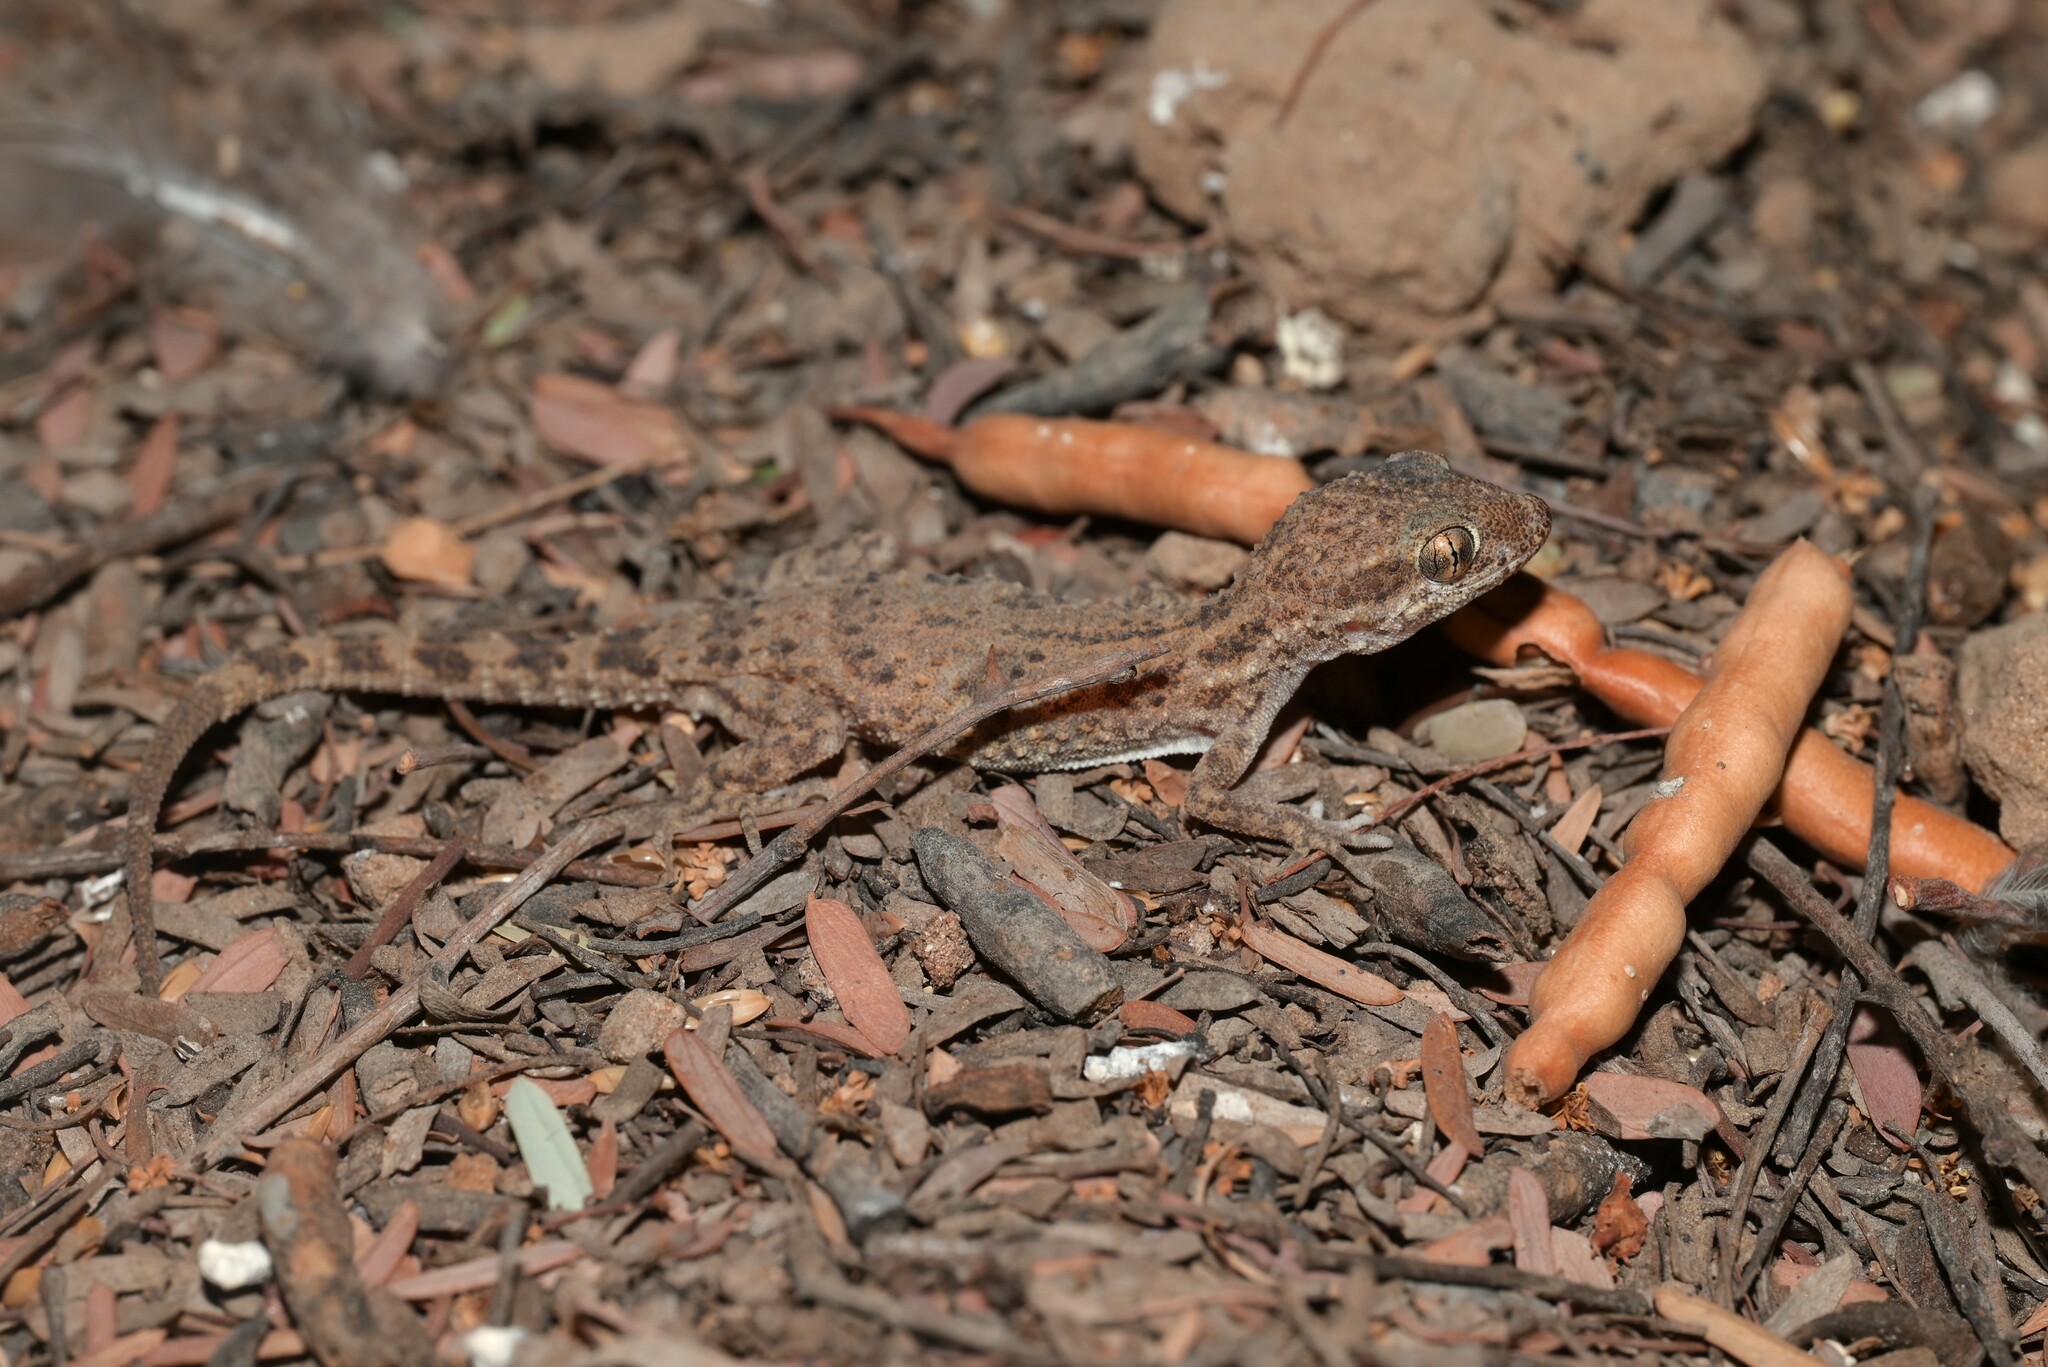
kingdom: Animalia
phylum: Chordata
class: Squamata
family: Gekkonidae
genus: Bunopus
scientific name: Bunopus tuberculatus
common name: Southern tuberculated gecko
